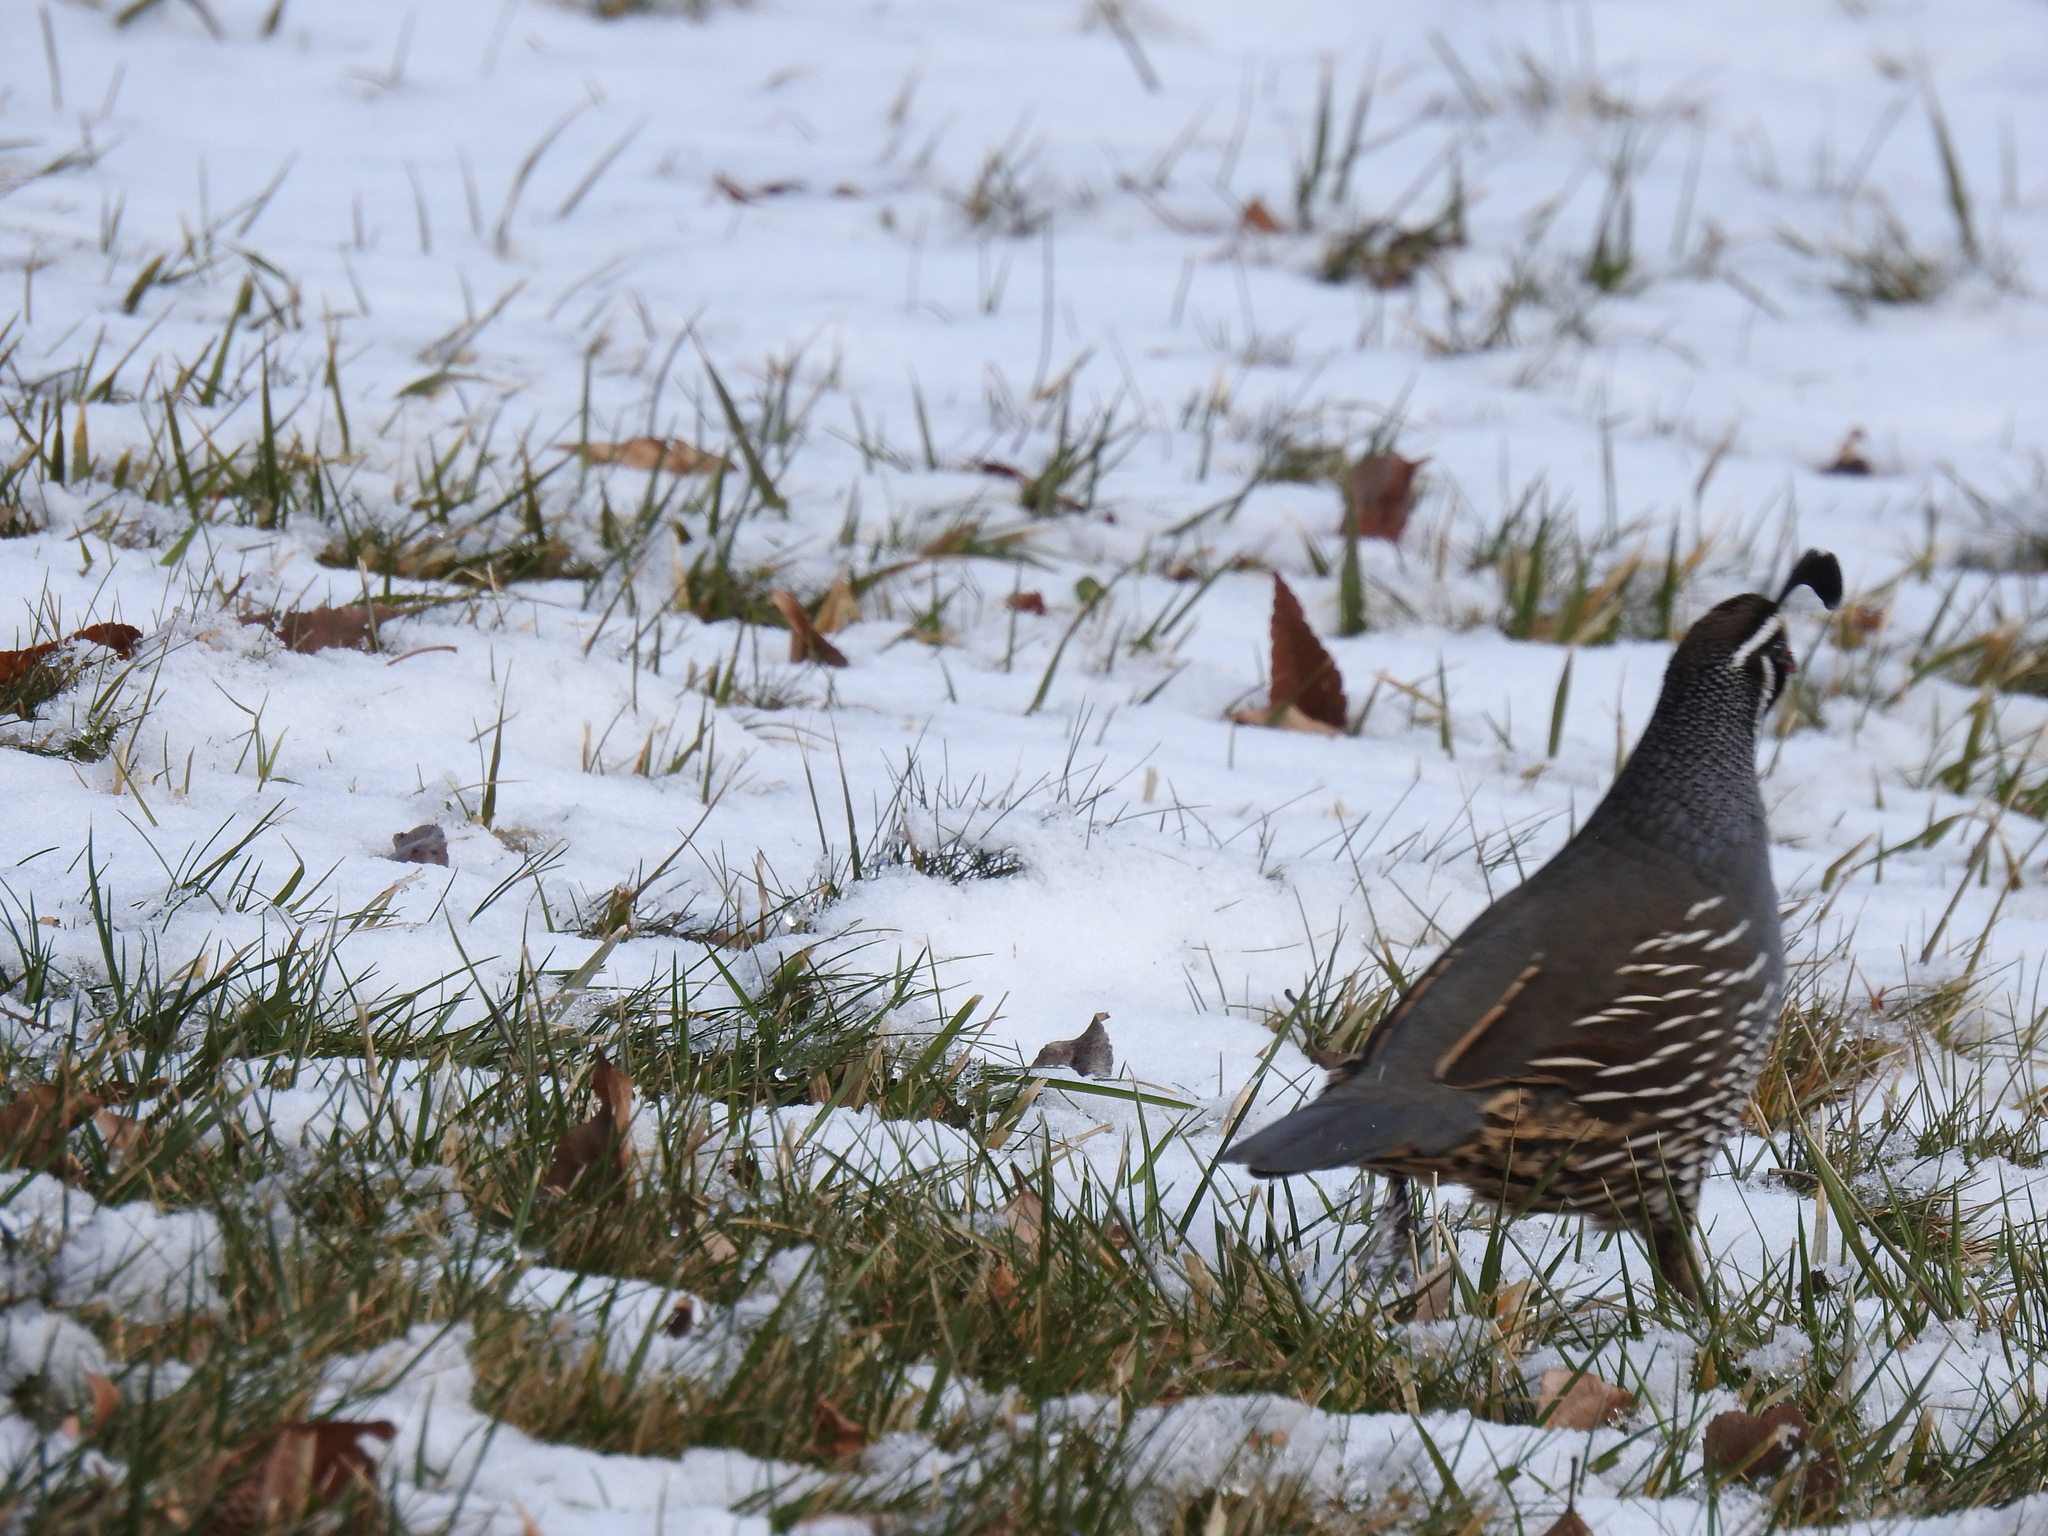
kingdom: Animalia
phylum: Chordata
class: Aves
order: Galliformes
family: Odontophoridae
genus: Callipepla
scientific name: Callipepla californica
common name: California quail
